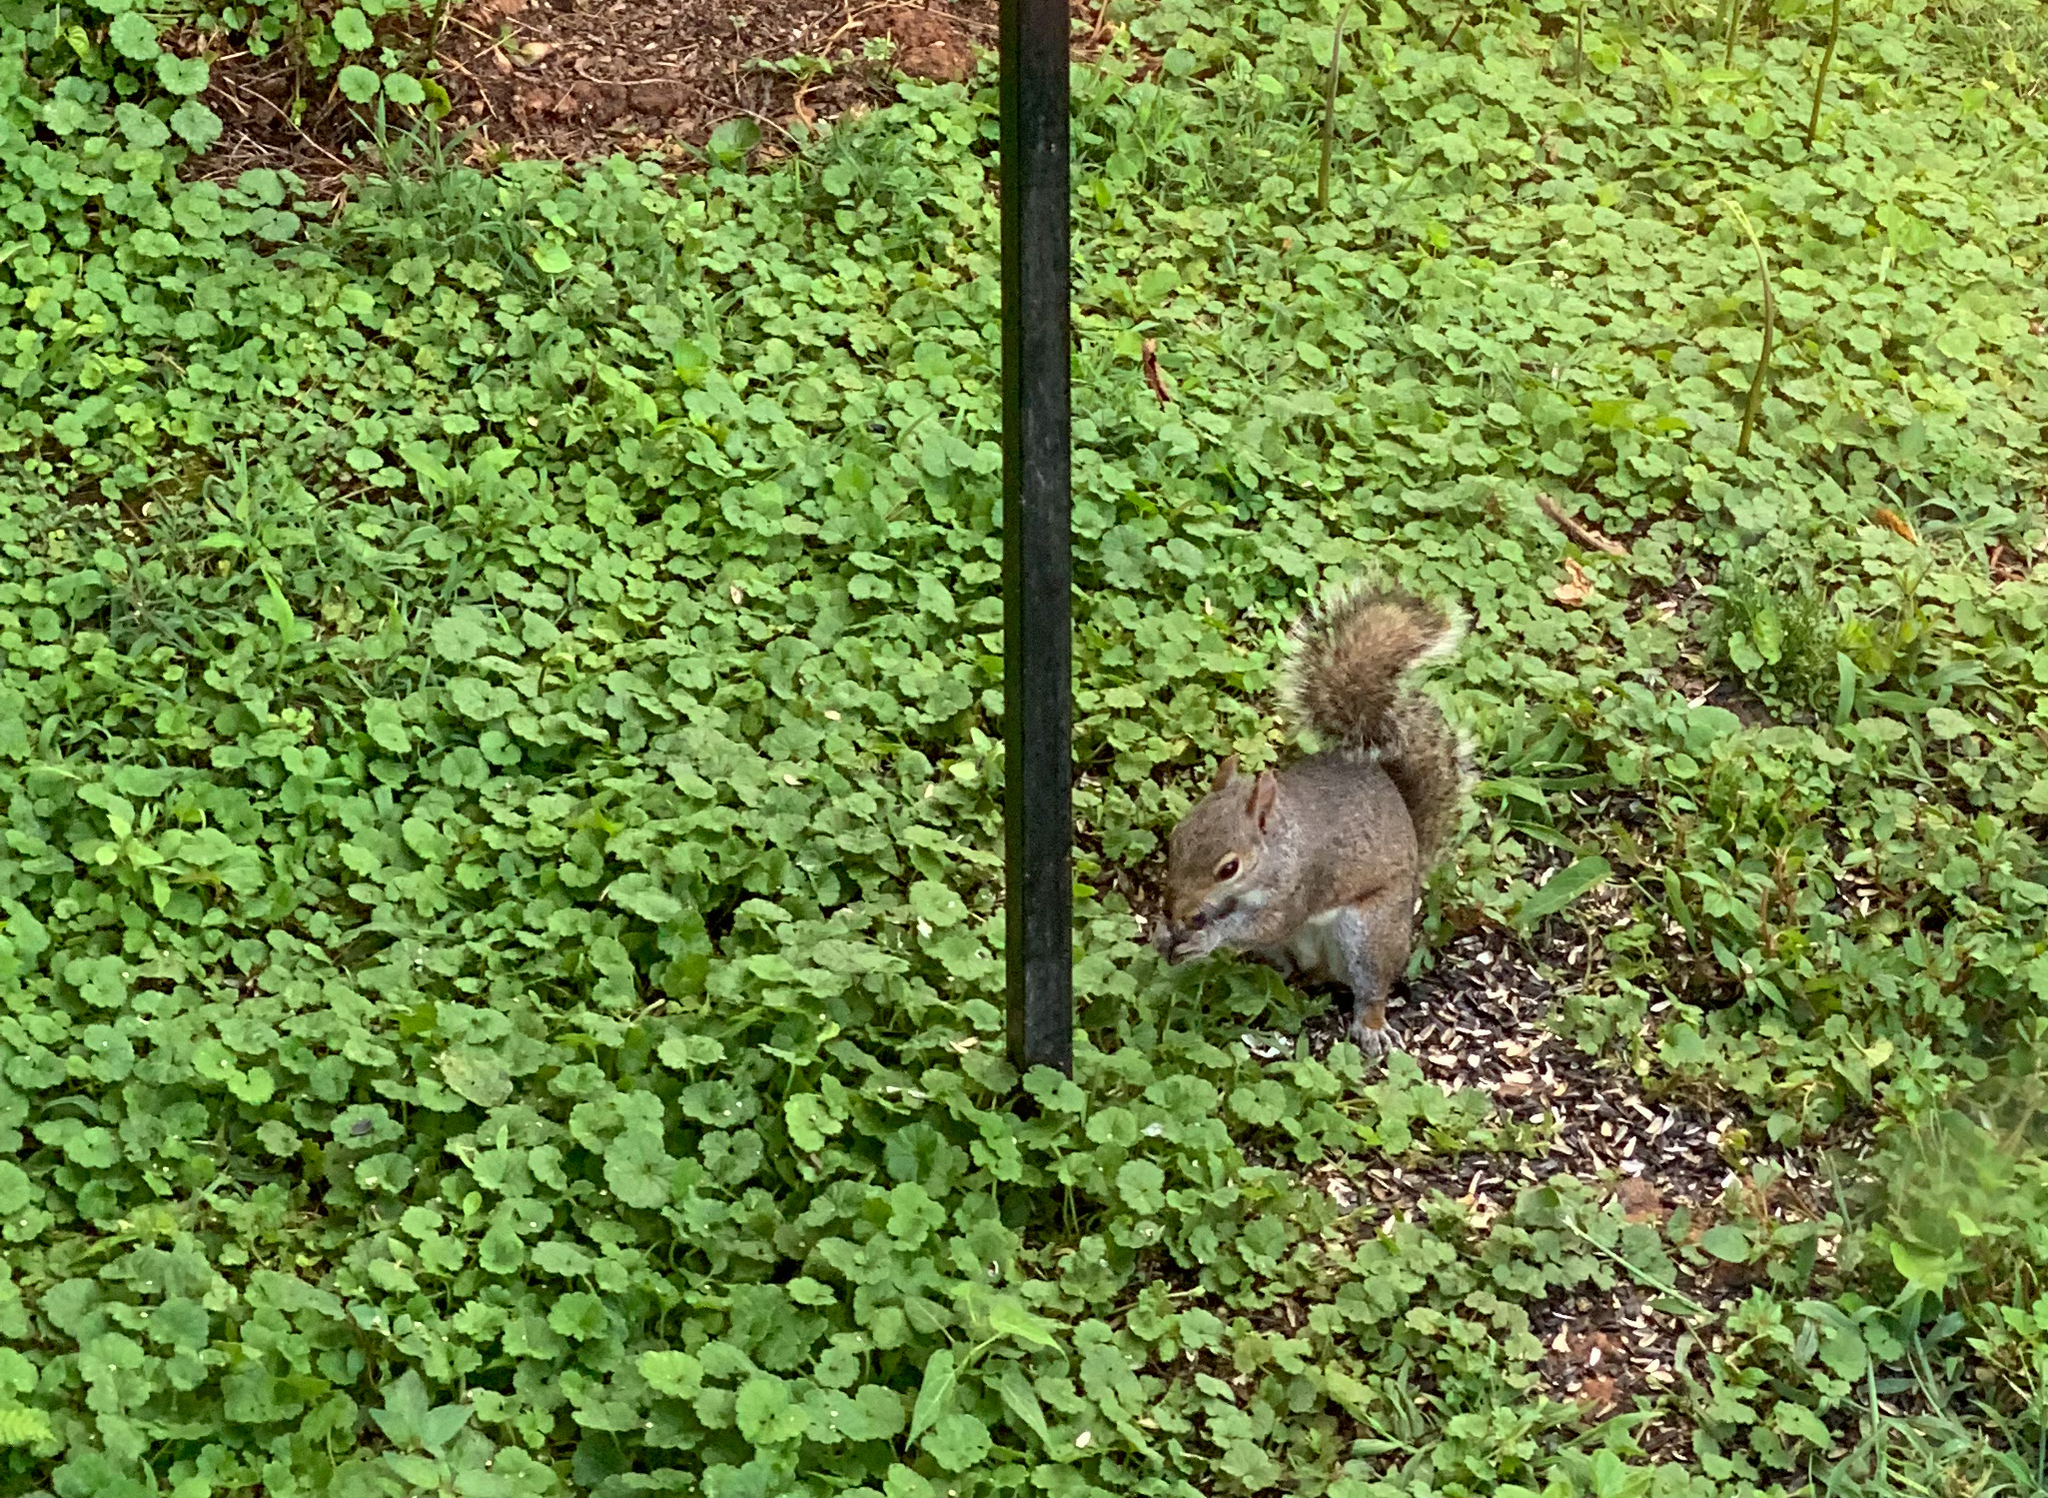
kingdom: Animalia
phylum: Chordata
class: Mammalia
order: Rodentia
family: Sciuridae
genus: Sciurus
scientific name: Sciurus carolinensis
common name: Eastern gray squirrel
